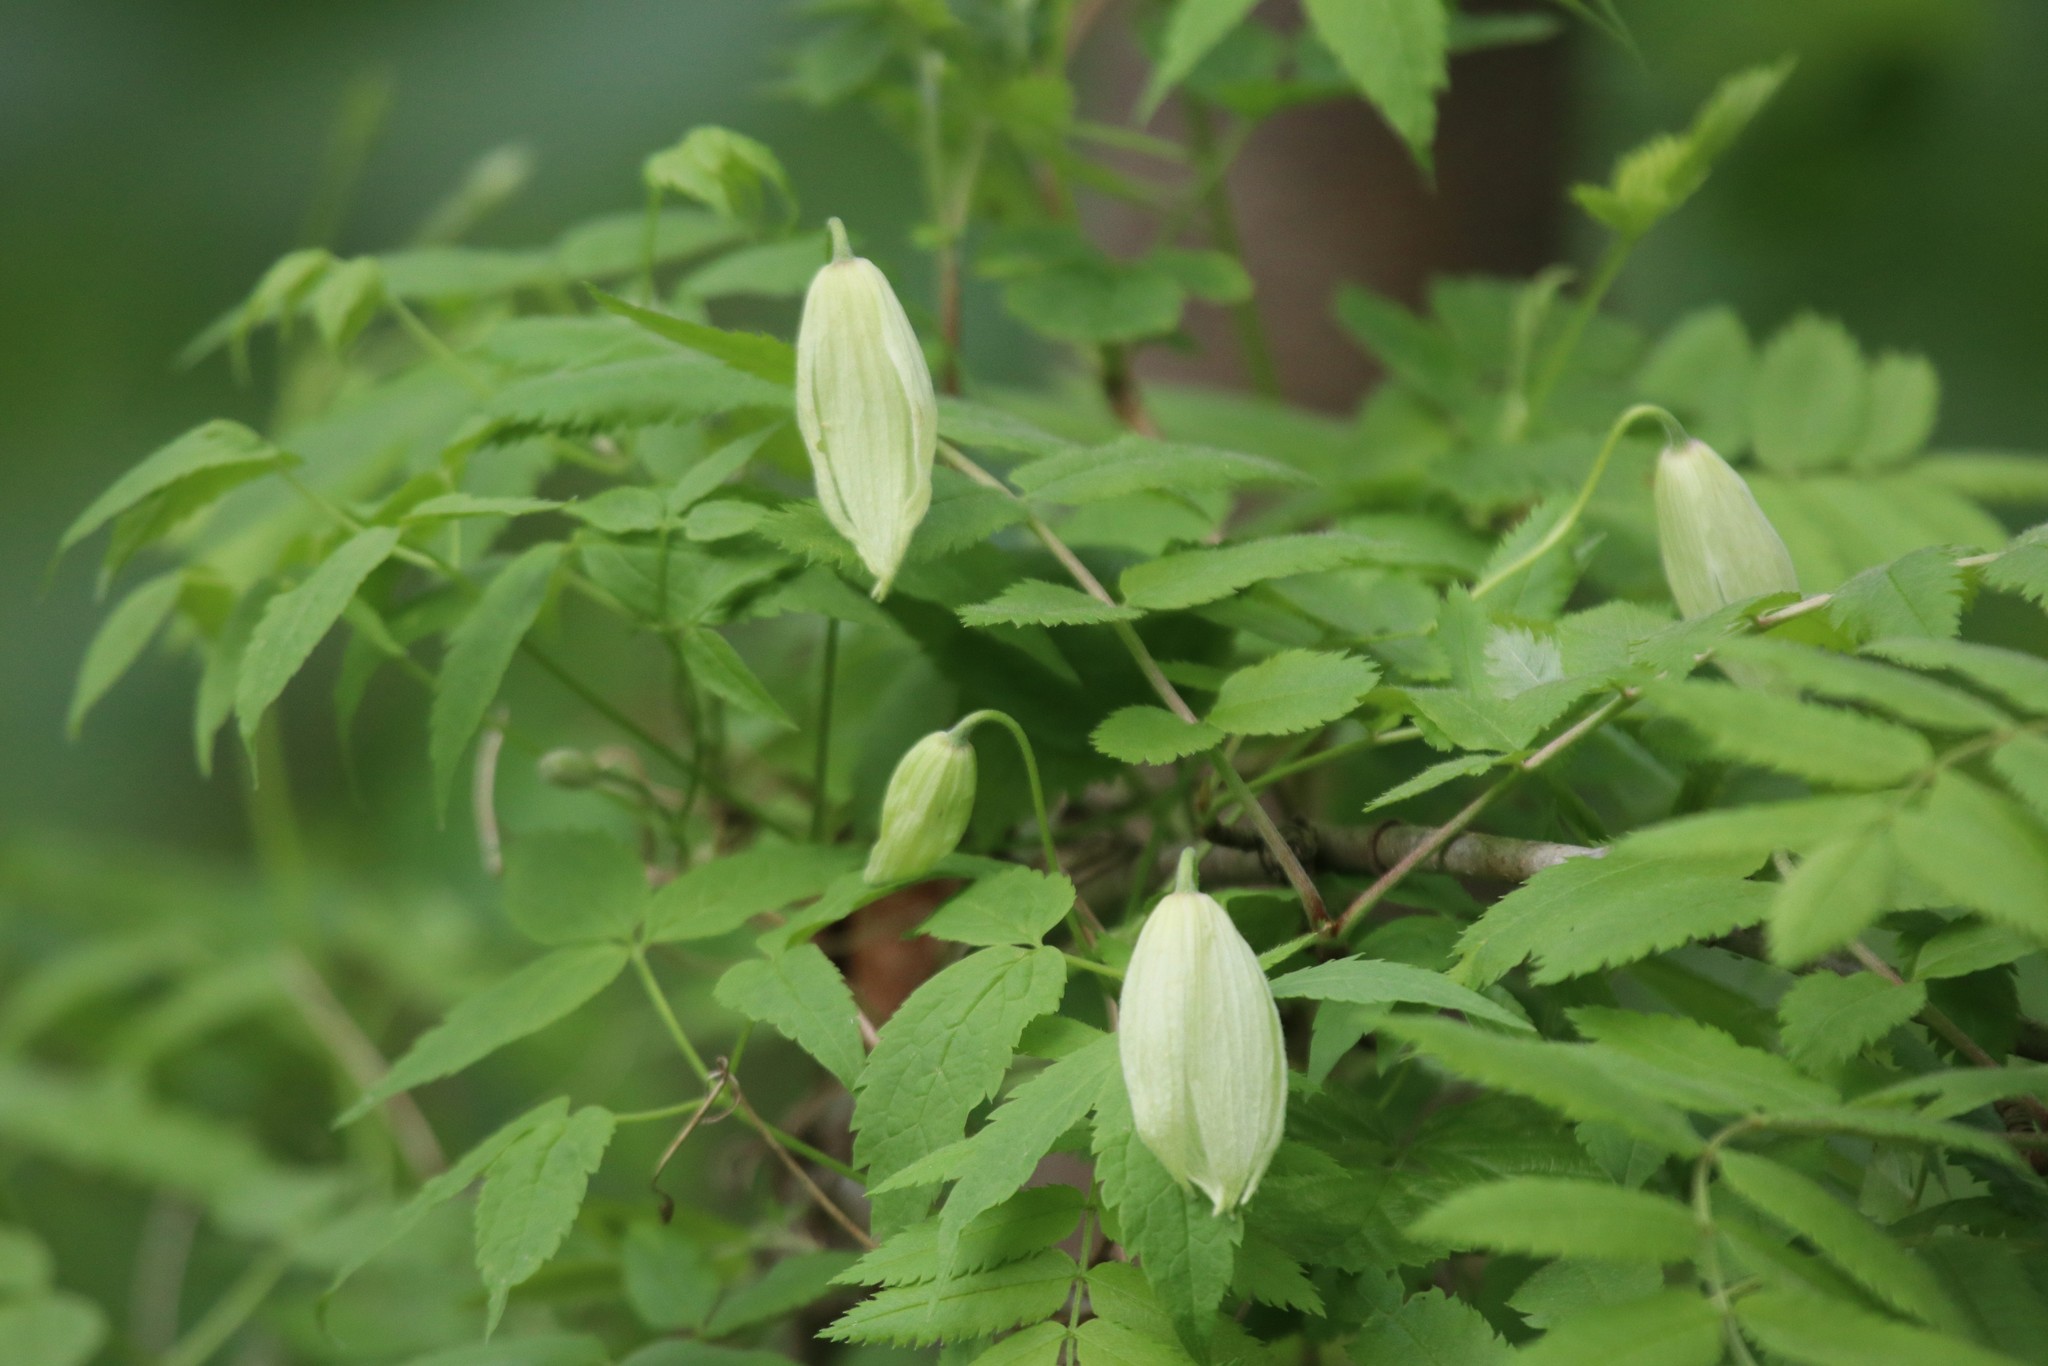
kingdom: Plantae
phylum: Tracheophyta
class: Magnoliopsida
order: Ranunculales
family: Ranunculaceae
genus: Clematis
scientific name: Clematis sibirica
